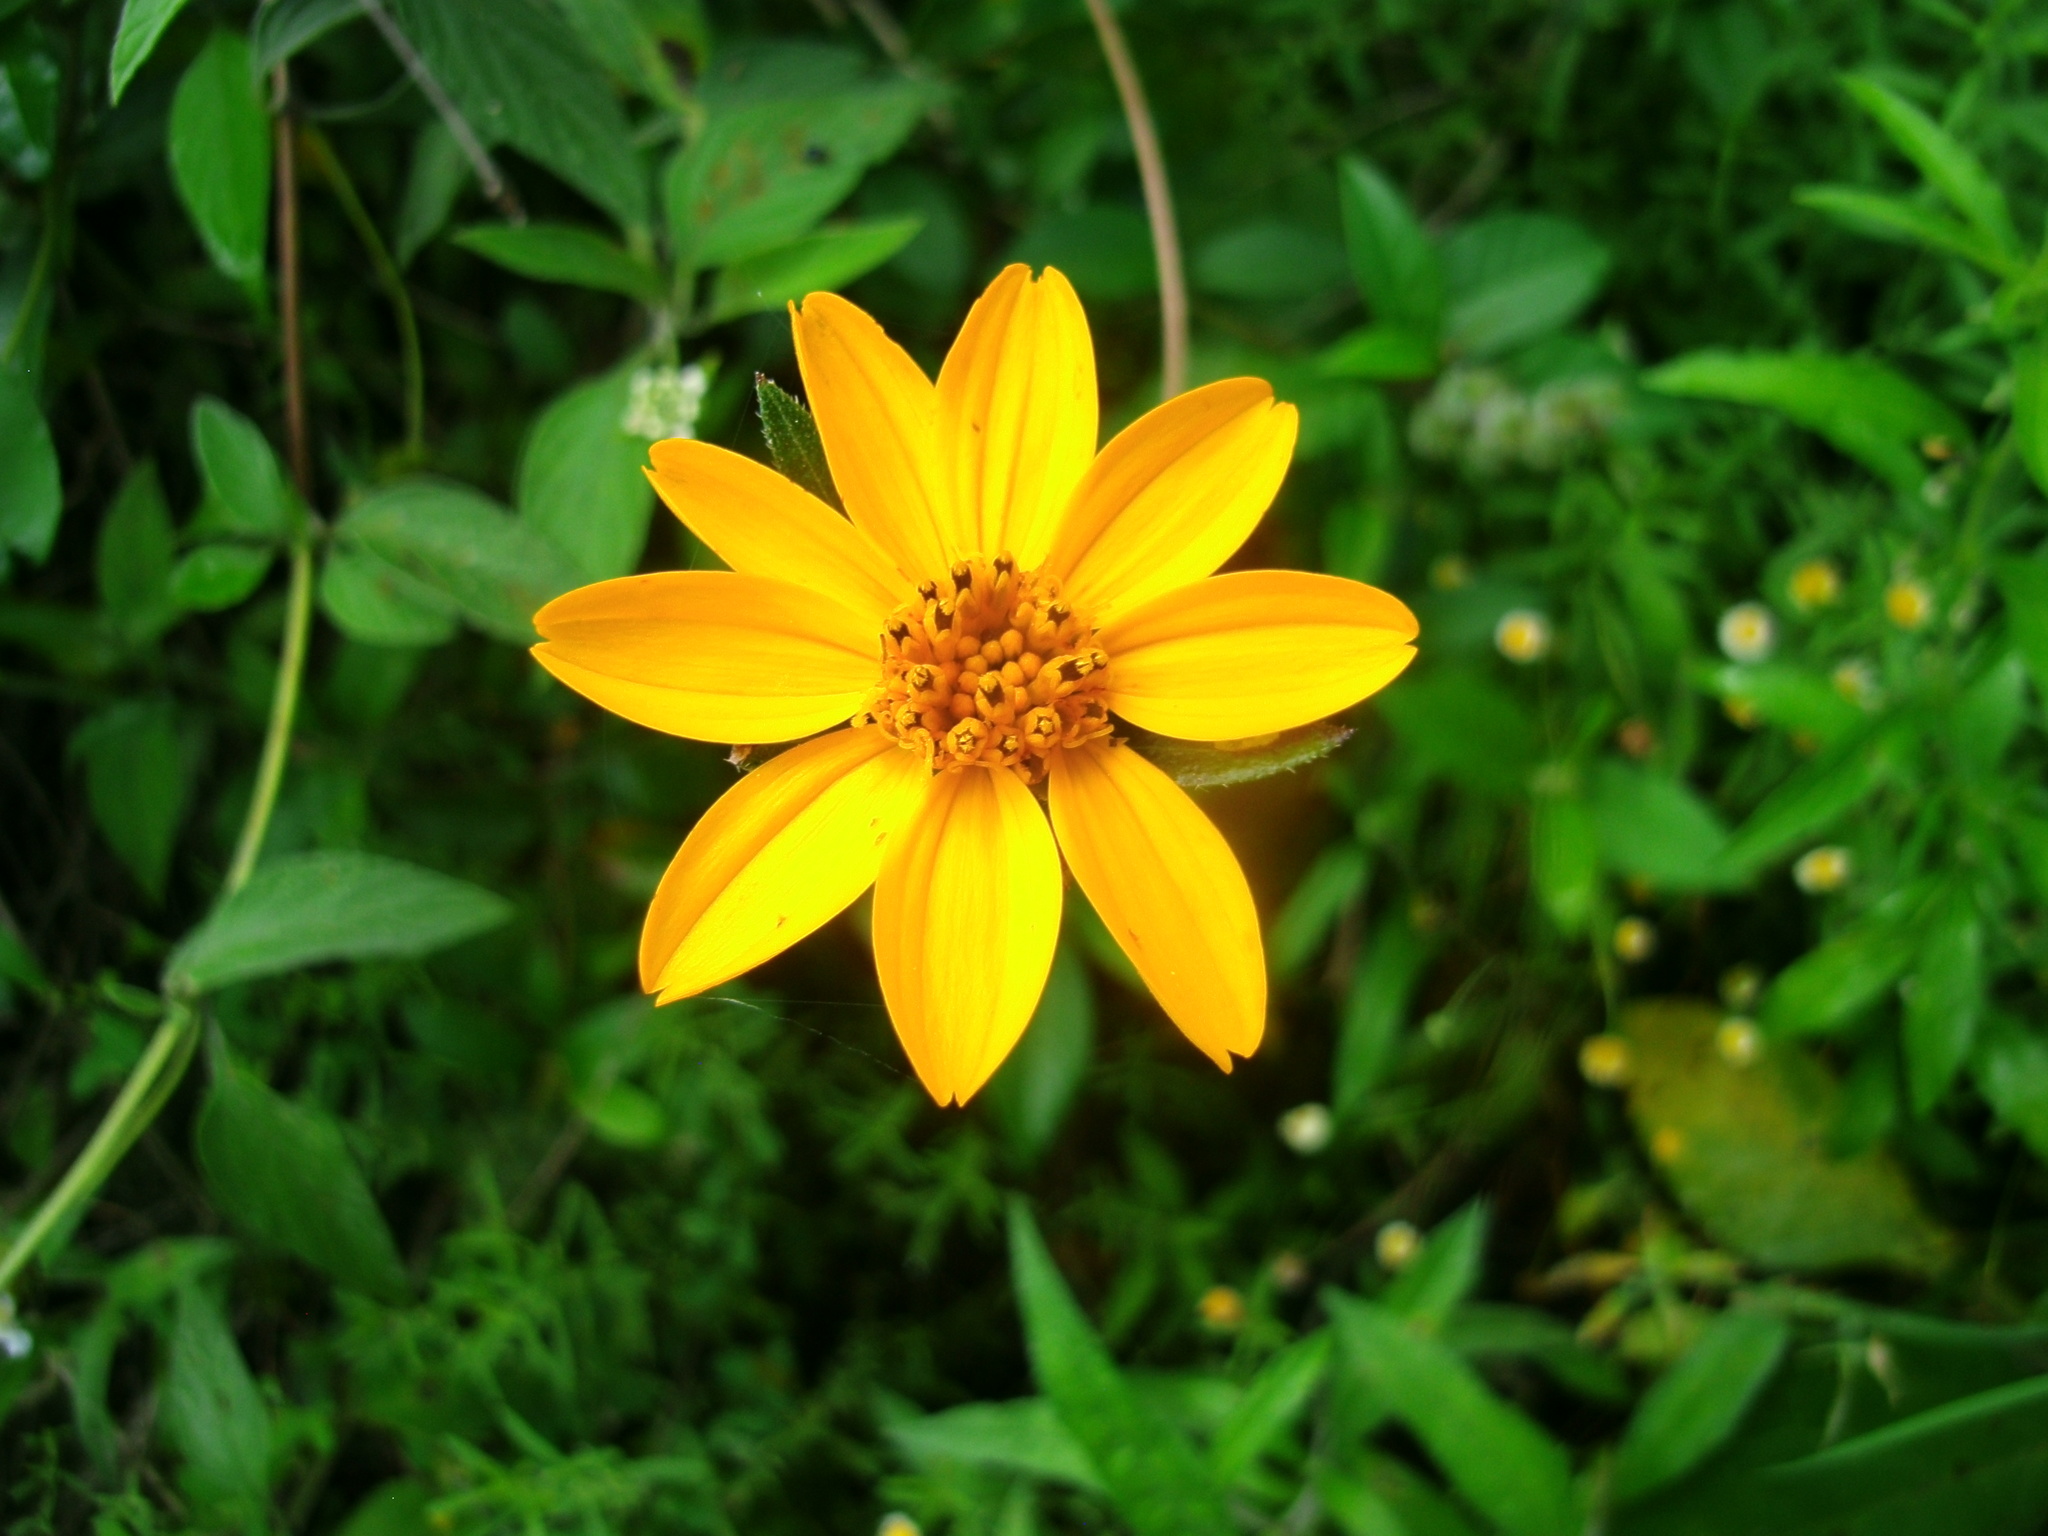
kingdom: Plantae
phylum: Tracheophyta
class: Magnoliopsida
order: Asterales
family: Asteraceae
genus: Wedelia
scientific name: Wedelia acapulcensis
